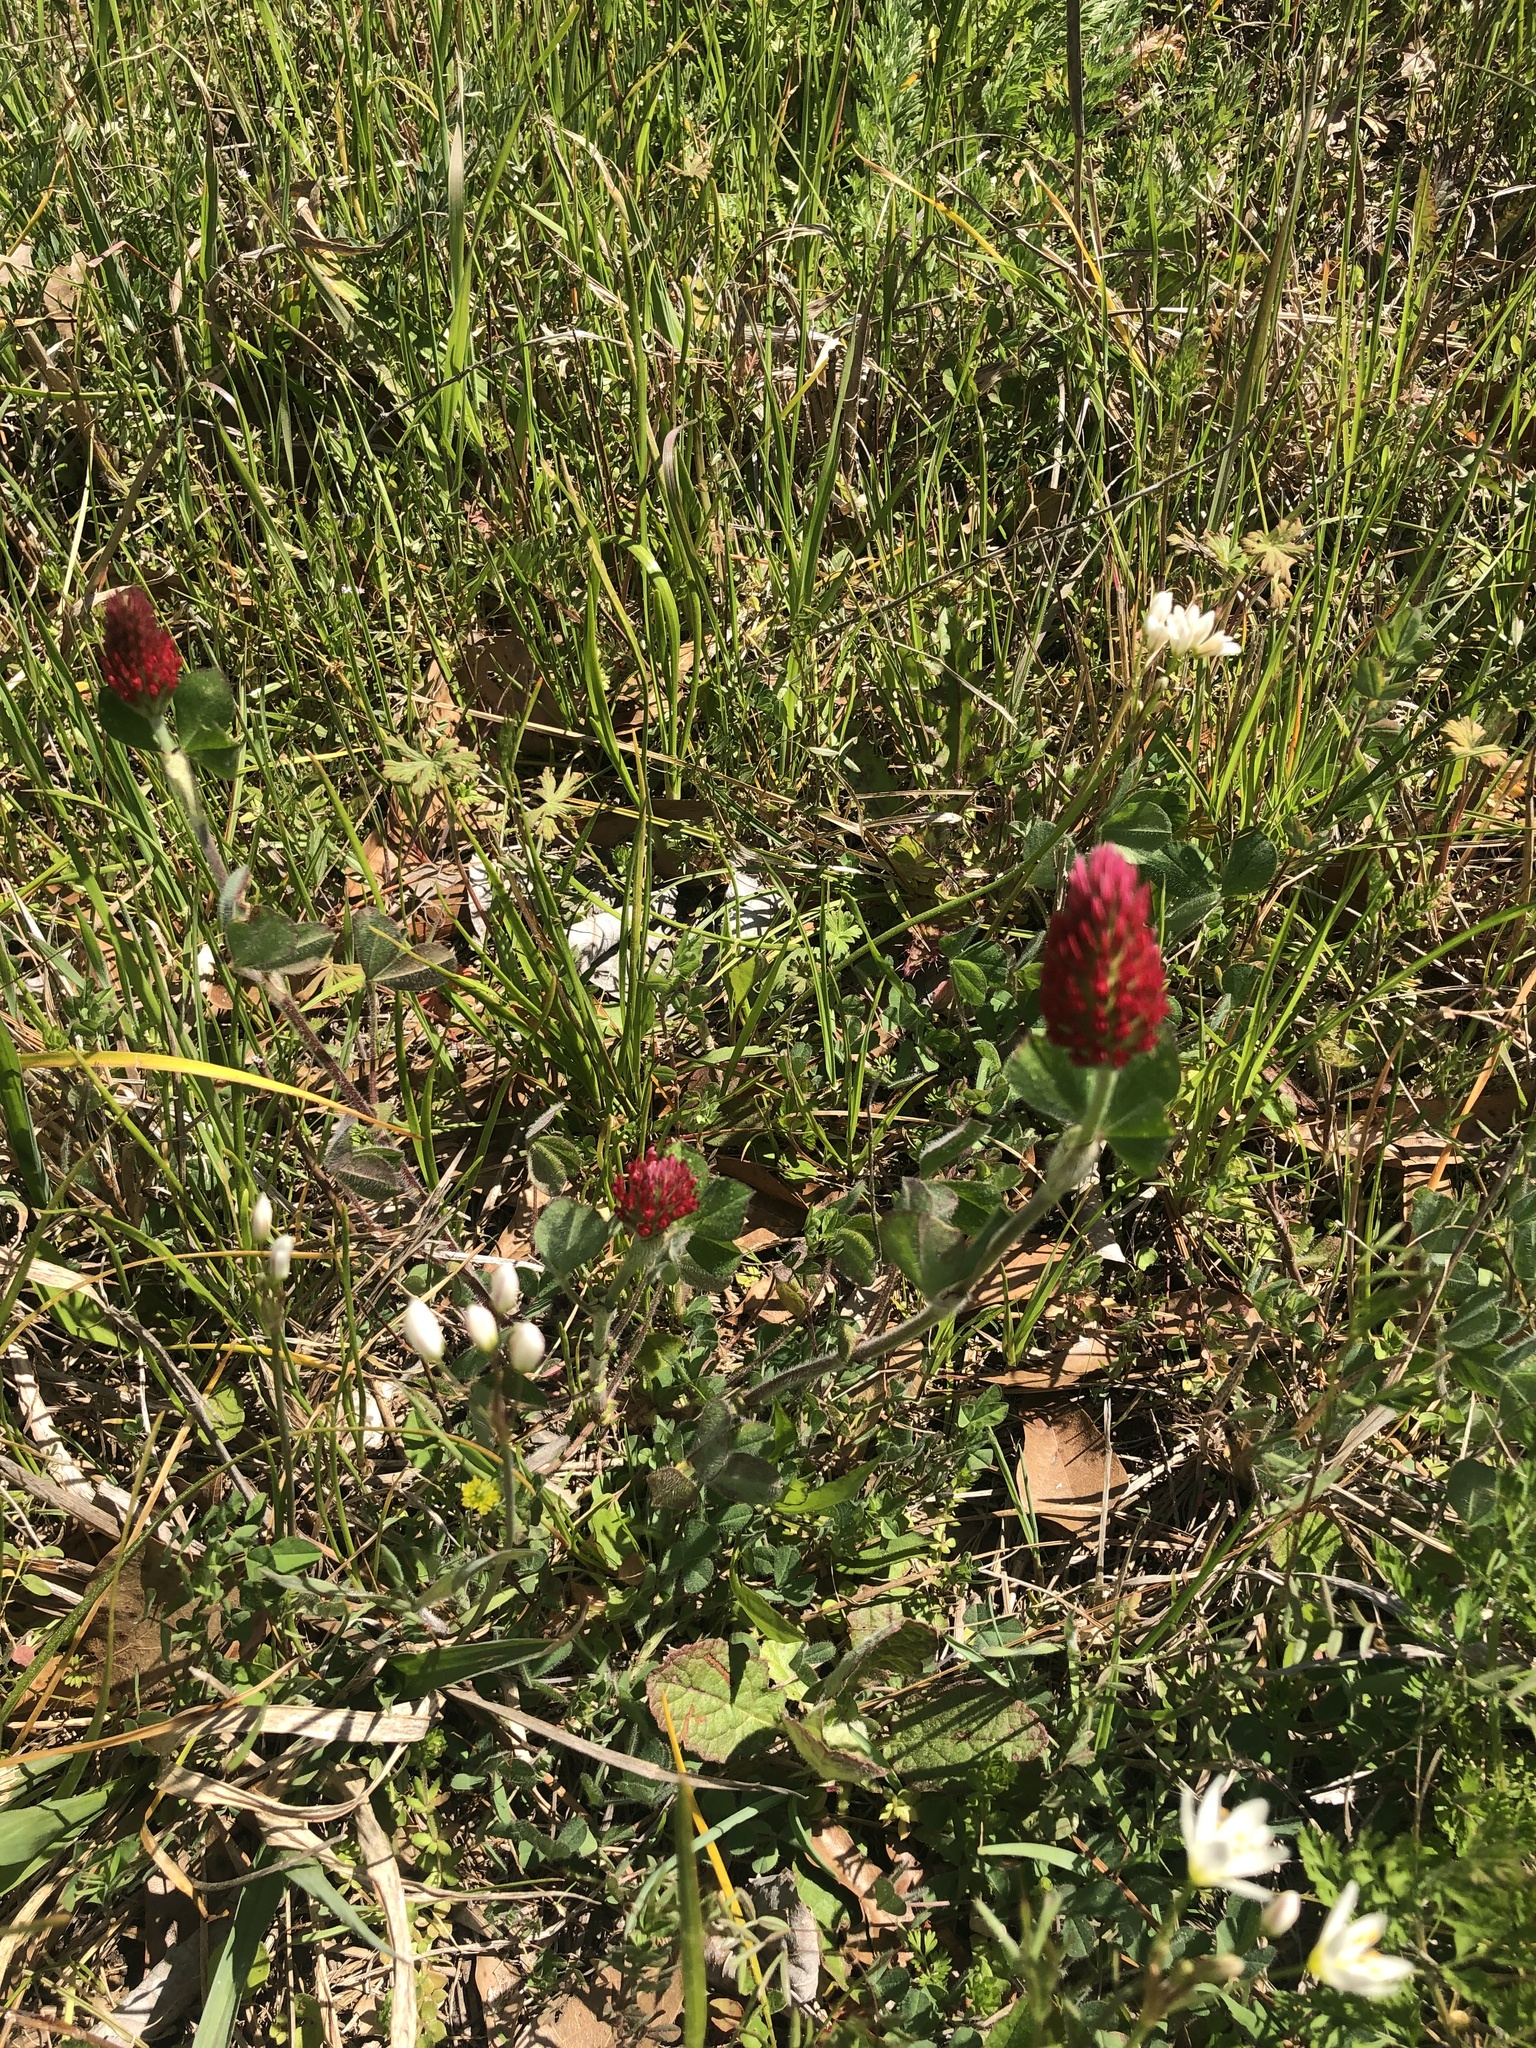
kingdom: Plantae
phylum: Tracheophyta
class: Magnoliopsida
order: Fabales
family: Fabaceae
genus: Trifolium
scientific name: Trifolium incarnatum
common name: Crimson clover
